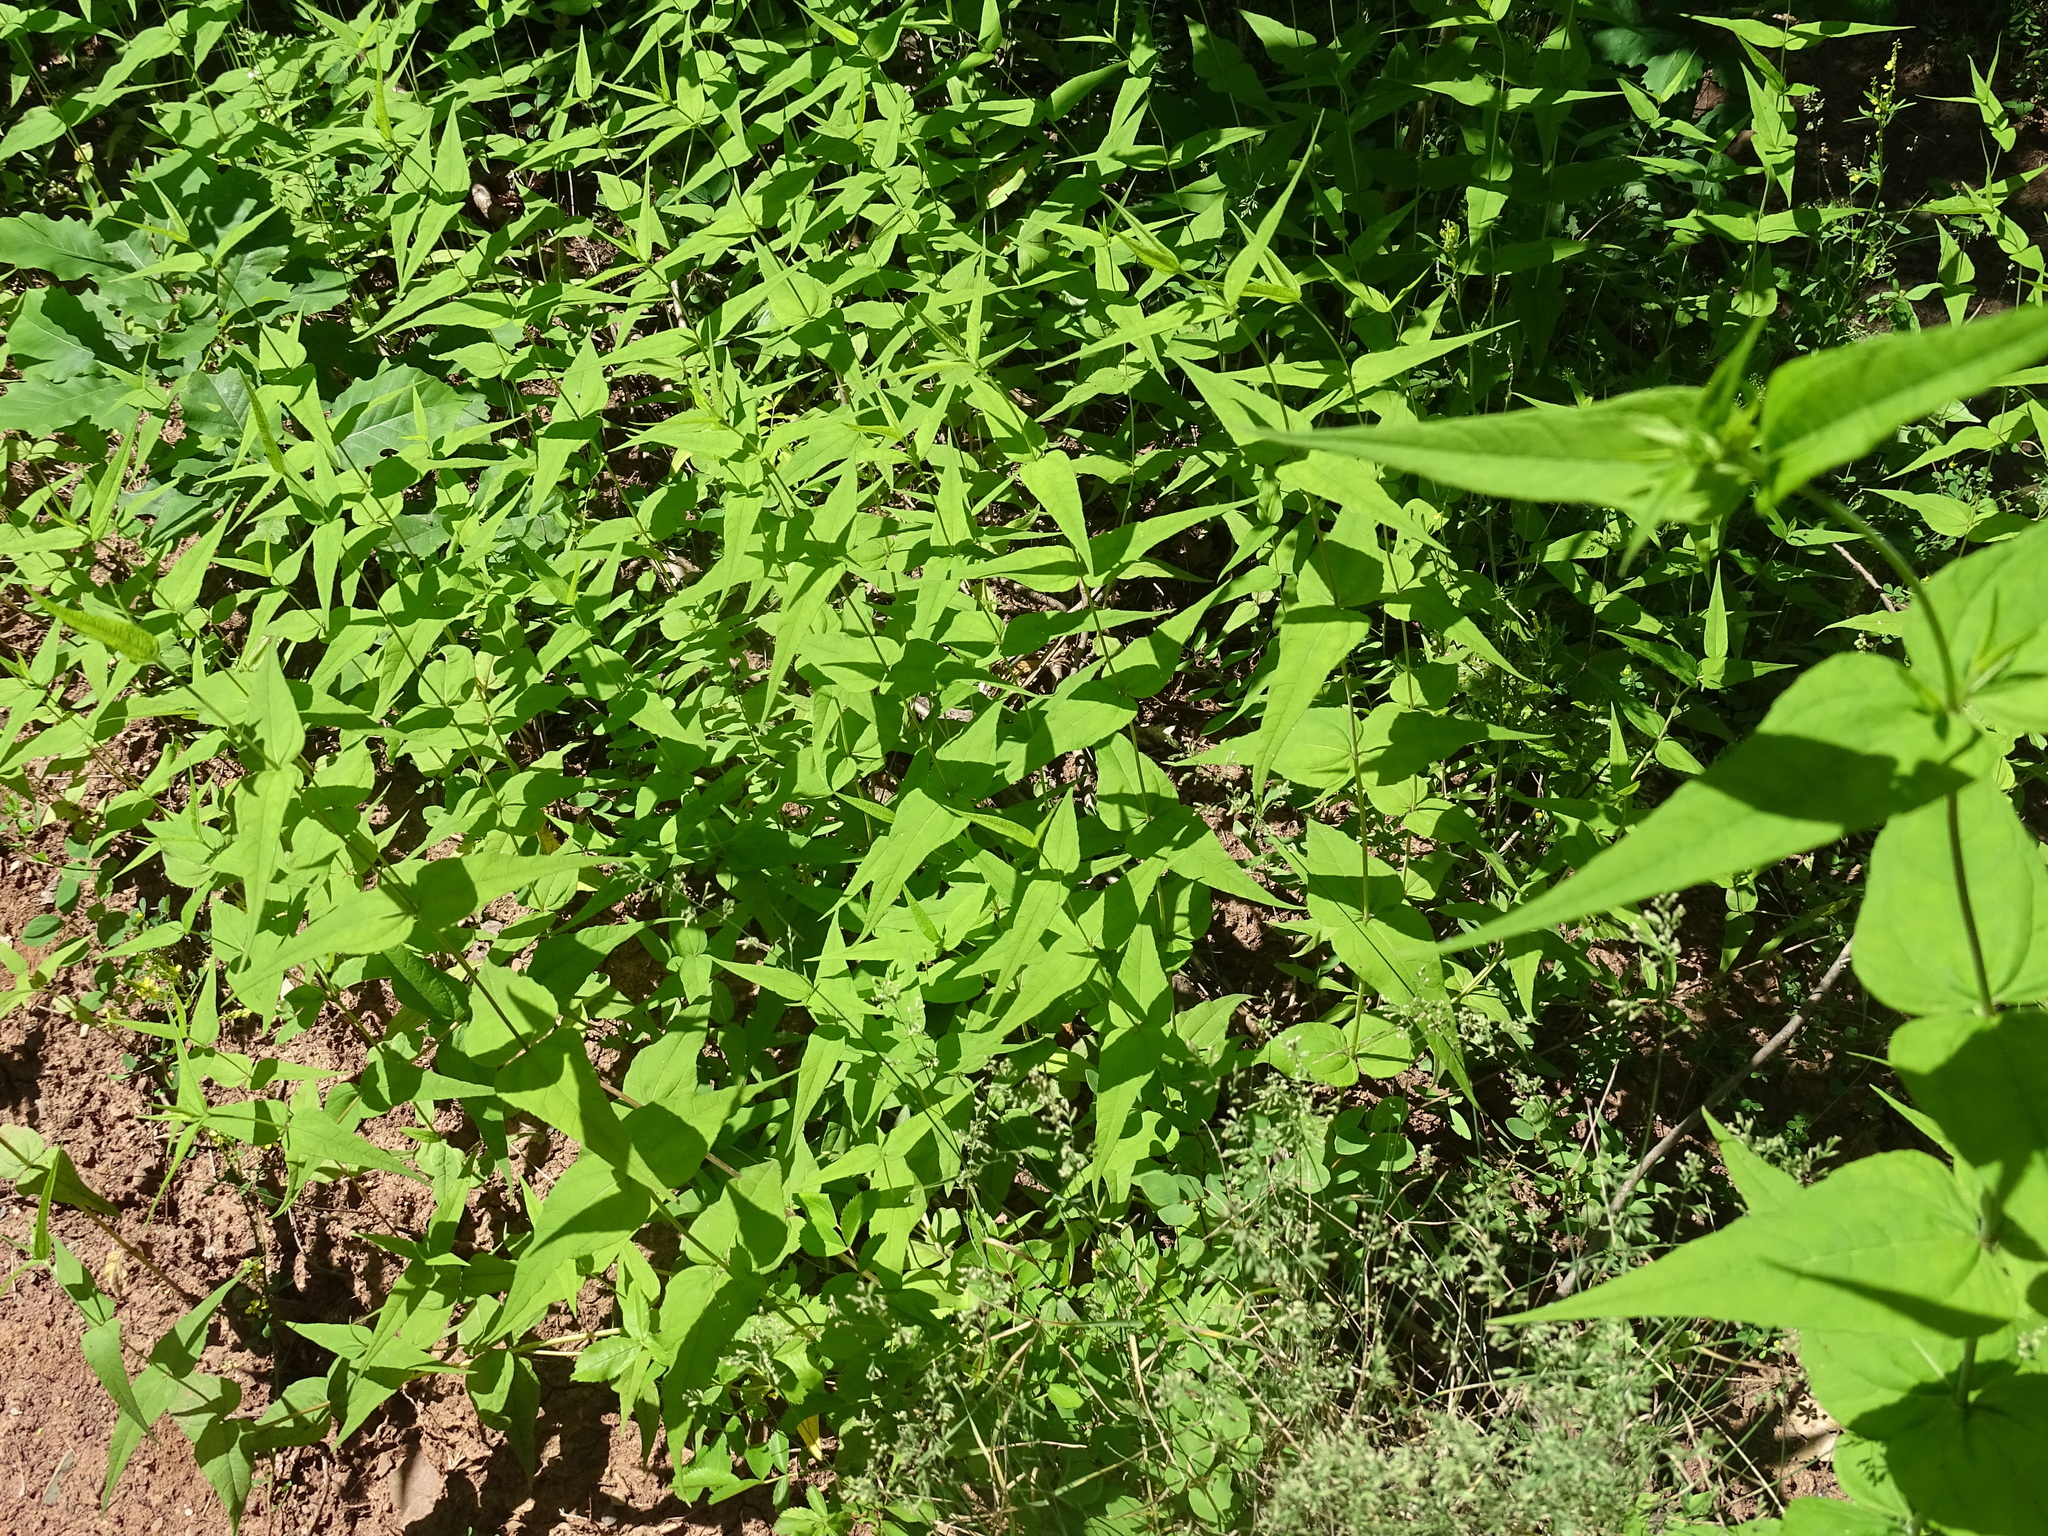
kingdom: Plantae
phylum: Tracheophyta
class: Magnoliopsida
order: Asterales
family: Asteraceae
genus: Helianthus
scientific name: Helianthus divaricatus
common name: Divergent sunflower
